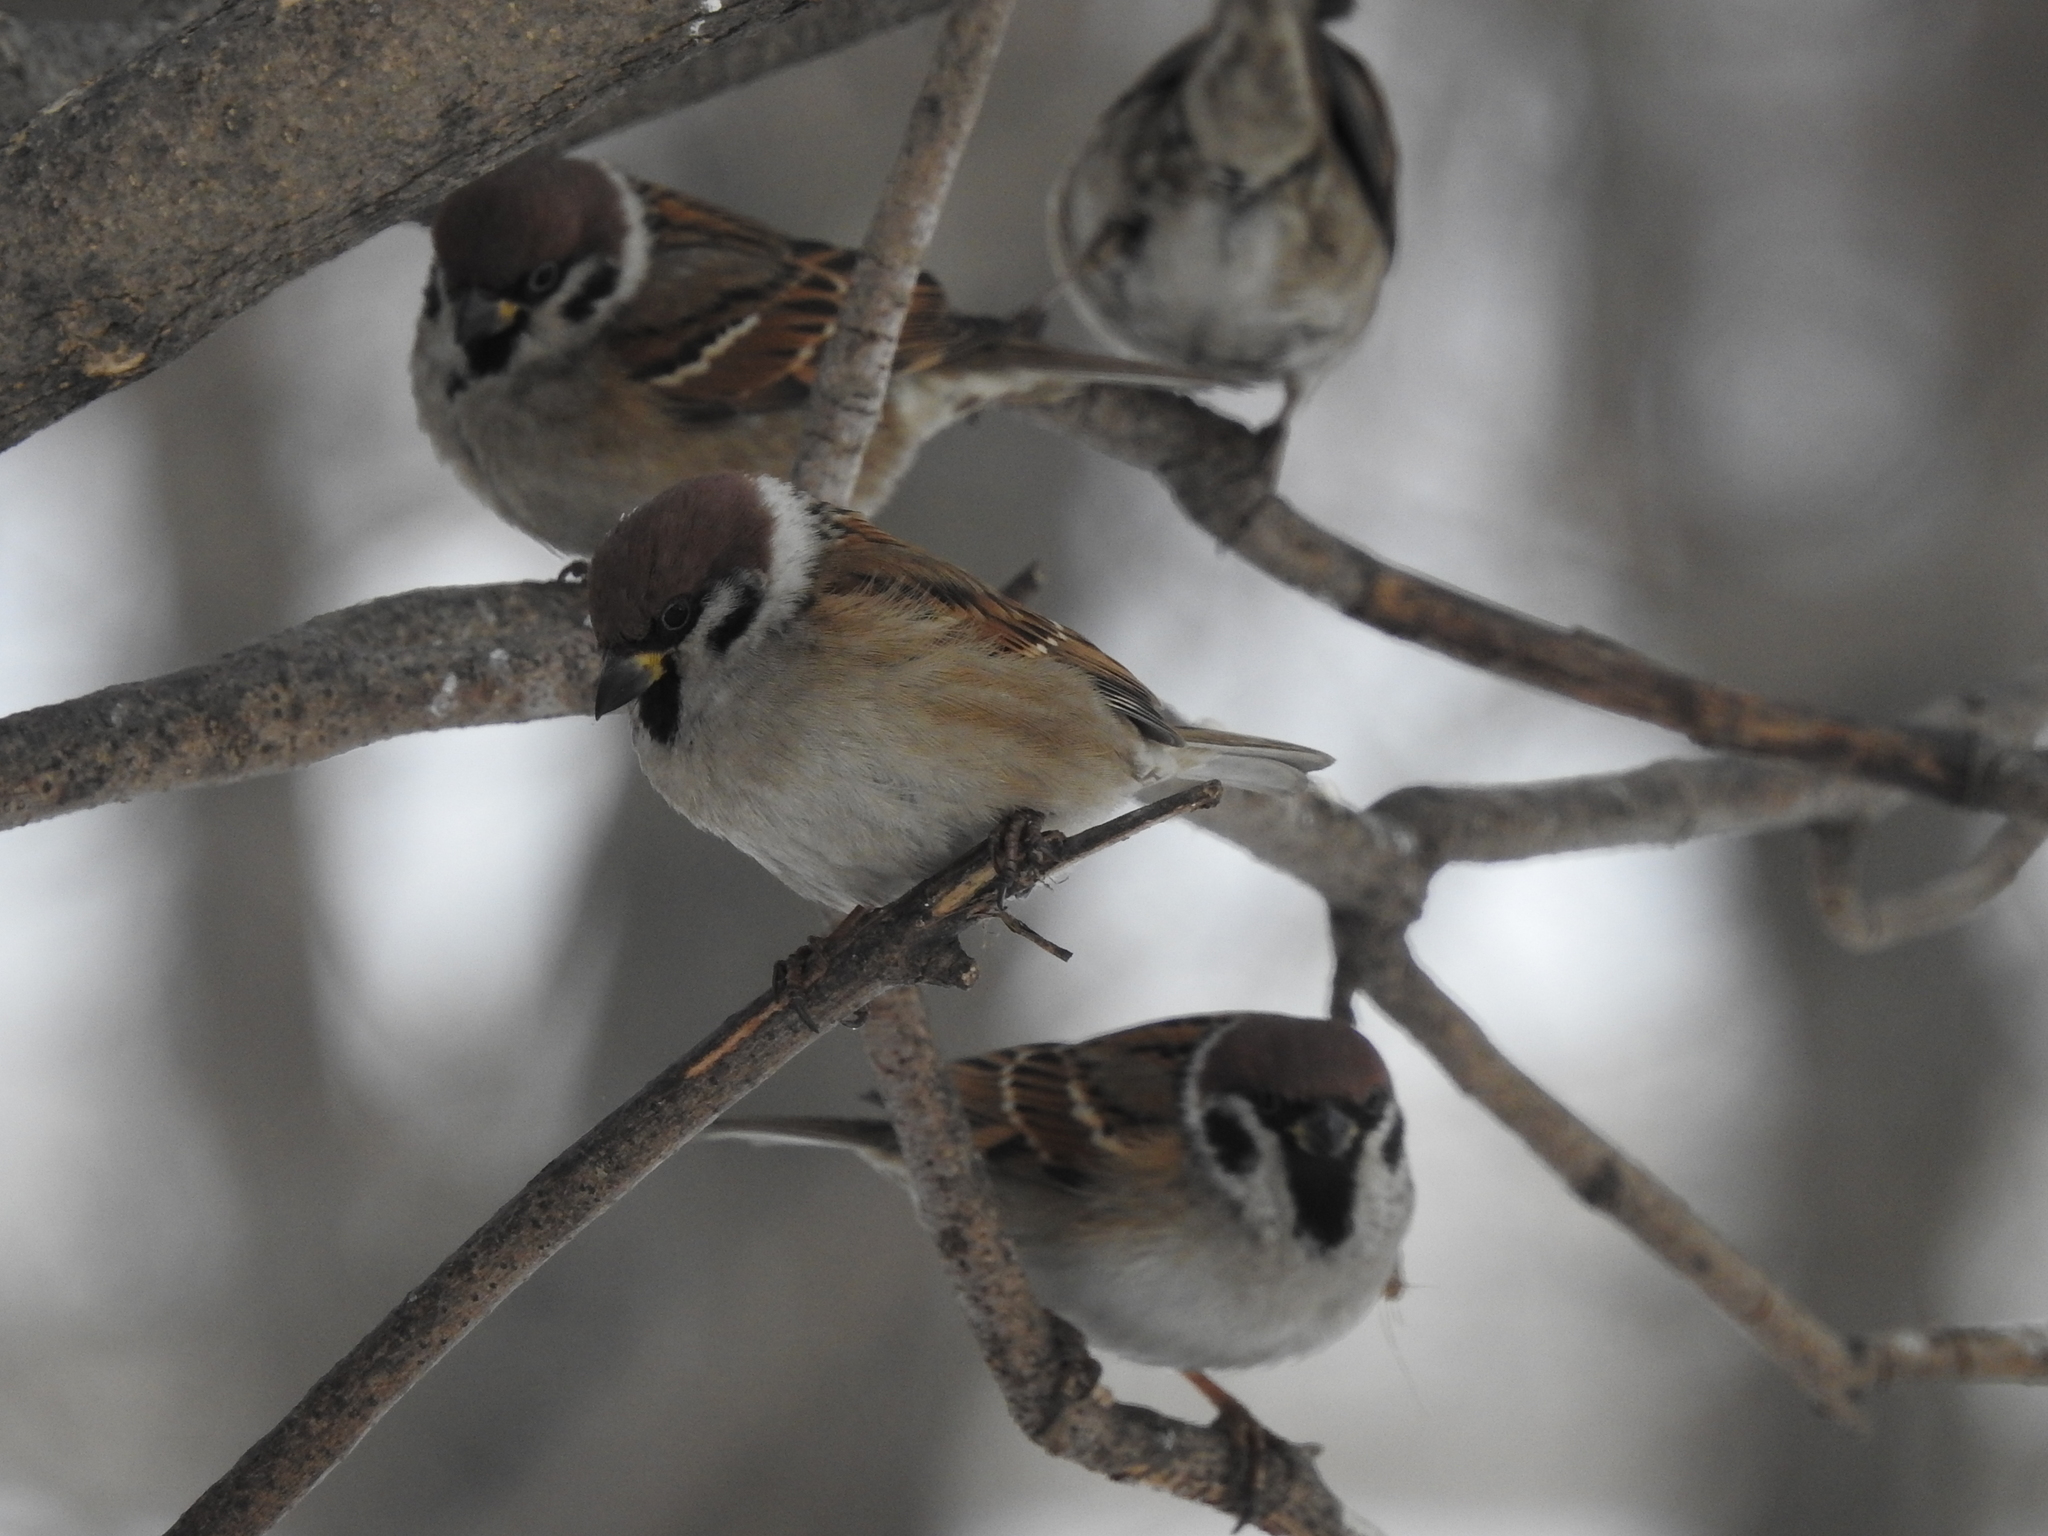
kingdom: Animalia
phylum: Chordata
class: Aves
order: Passeriformes
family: Passeridae
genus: Passer
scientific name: Passer montanus
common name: Eurasian tree sparrow
